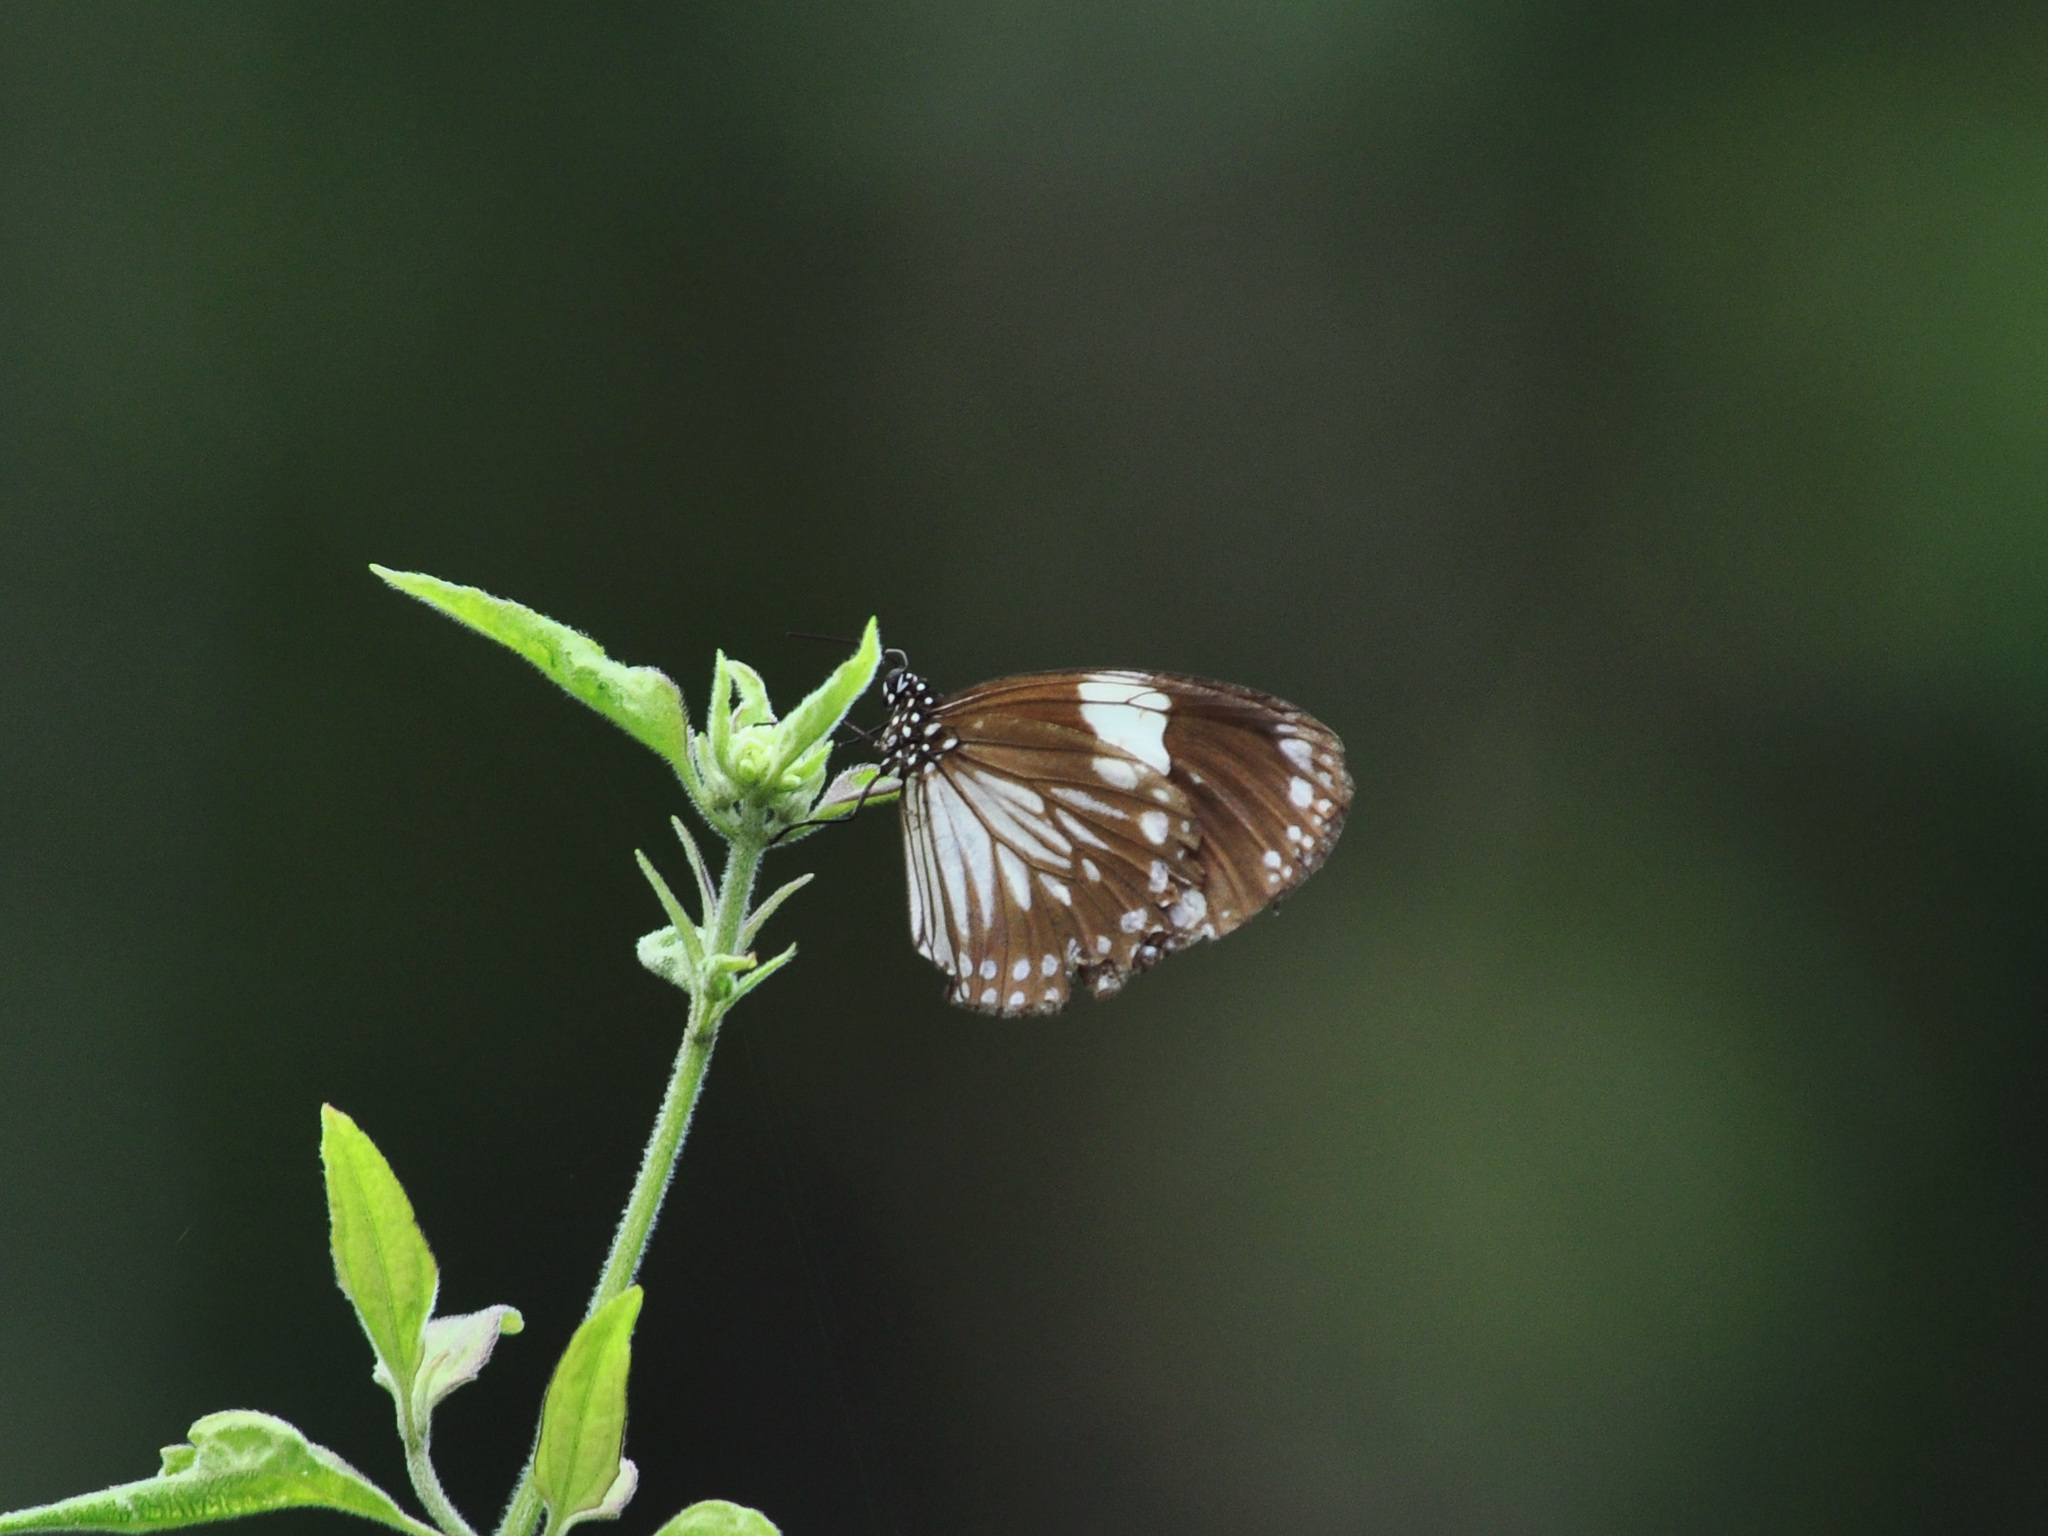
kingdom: Animalia
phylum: Arthropoda
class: Insecta
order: Lepidoptera
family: Nymphalidae
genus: Euploea
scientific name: Euploea radamanthus
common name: Magpie crow butterfly
